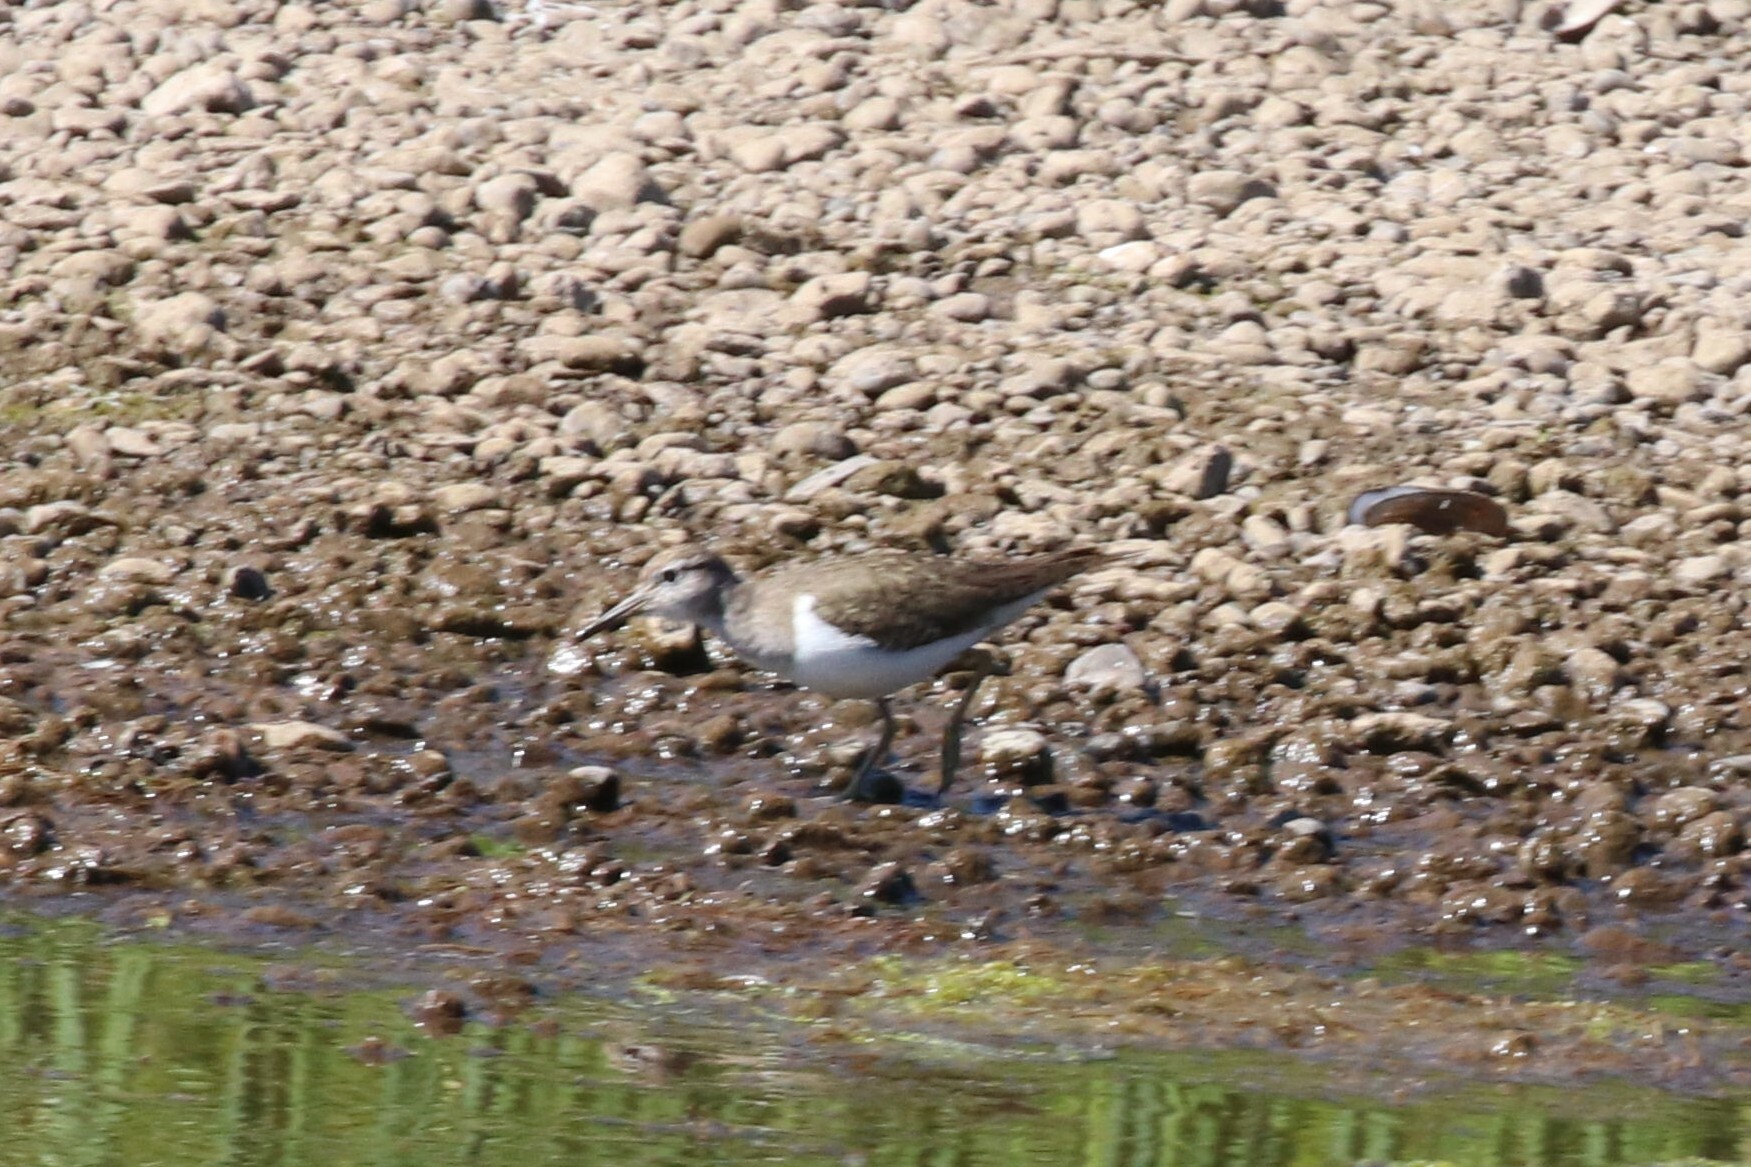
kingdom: Animalia
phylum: Chordata
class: Aves
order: Charadriiformes
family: Scolopacidae
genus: Actitis
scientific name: Actitis hypoleucos
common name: Common sandpiper
